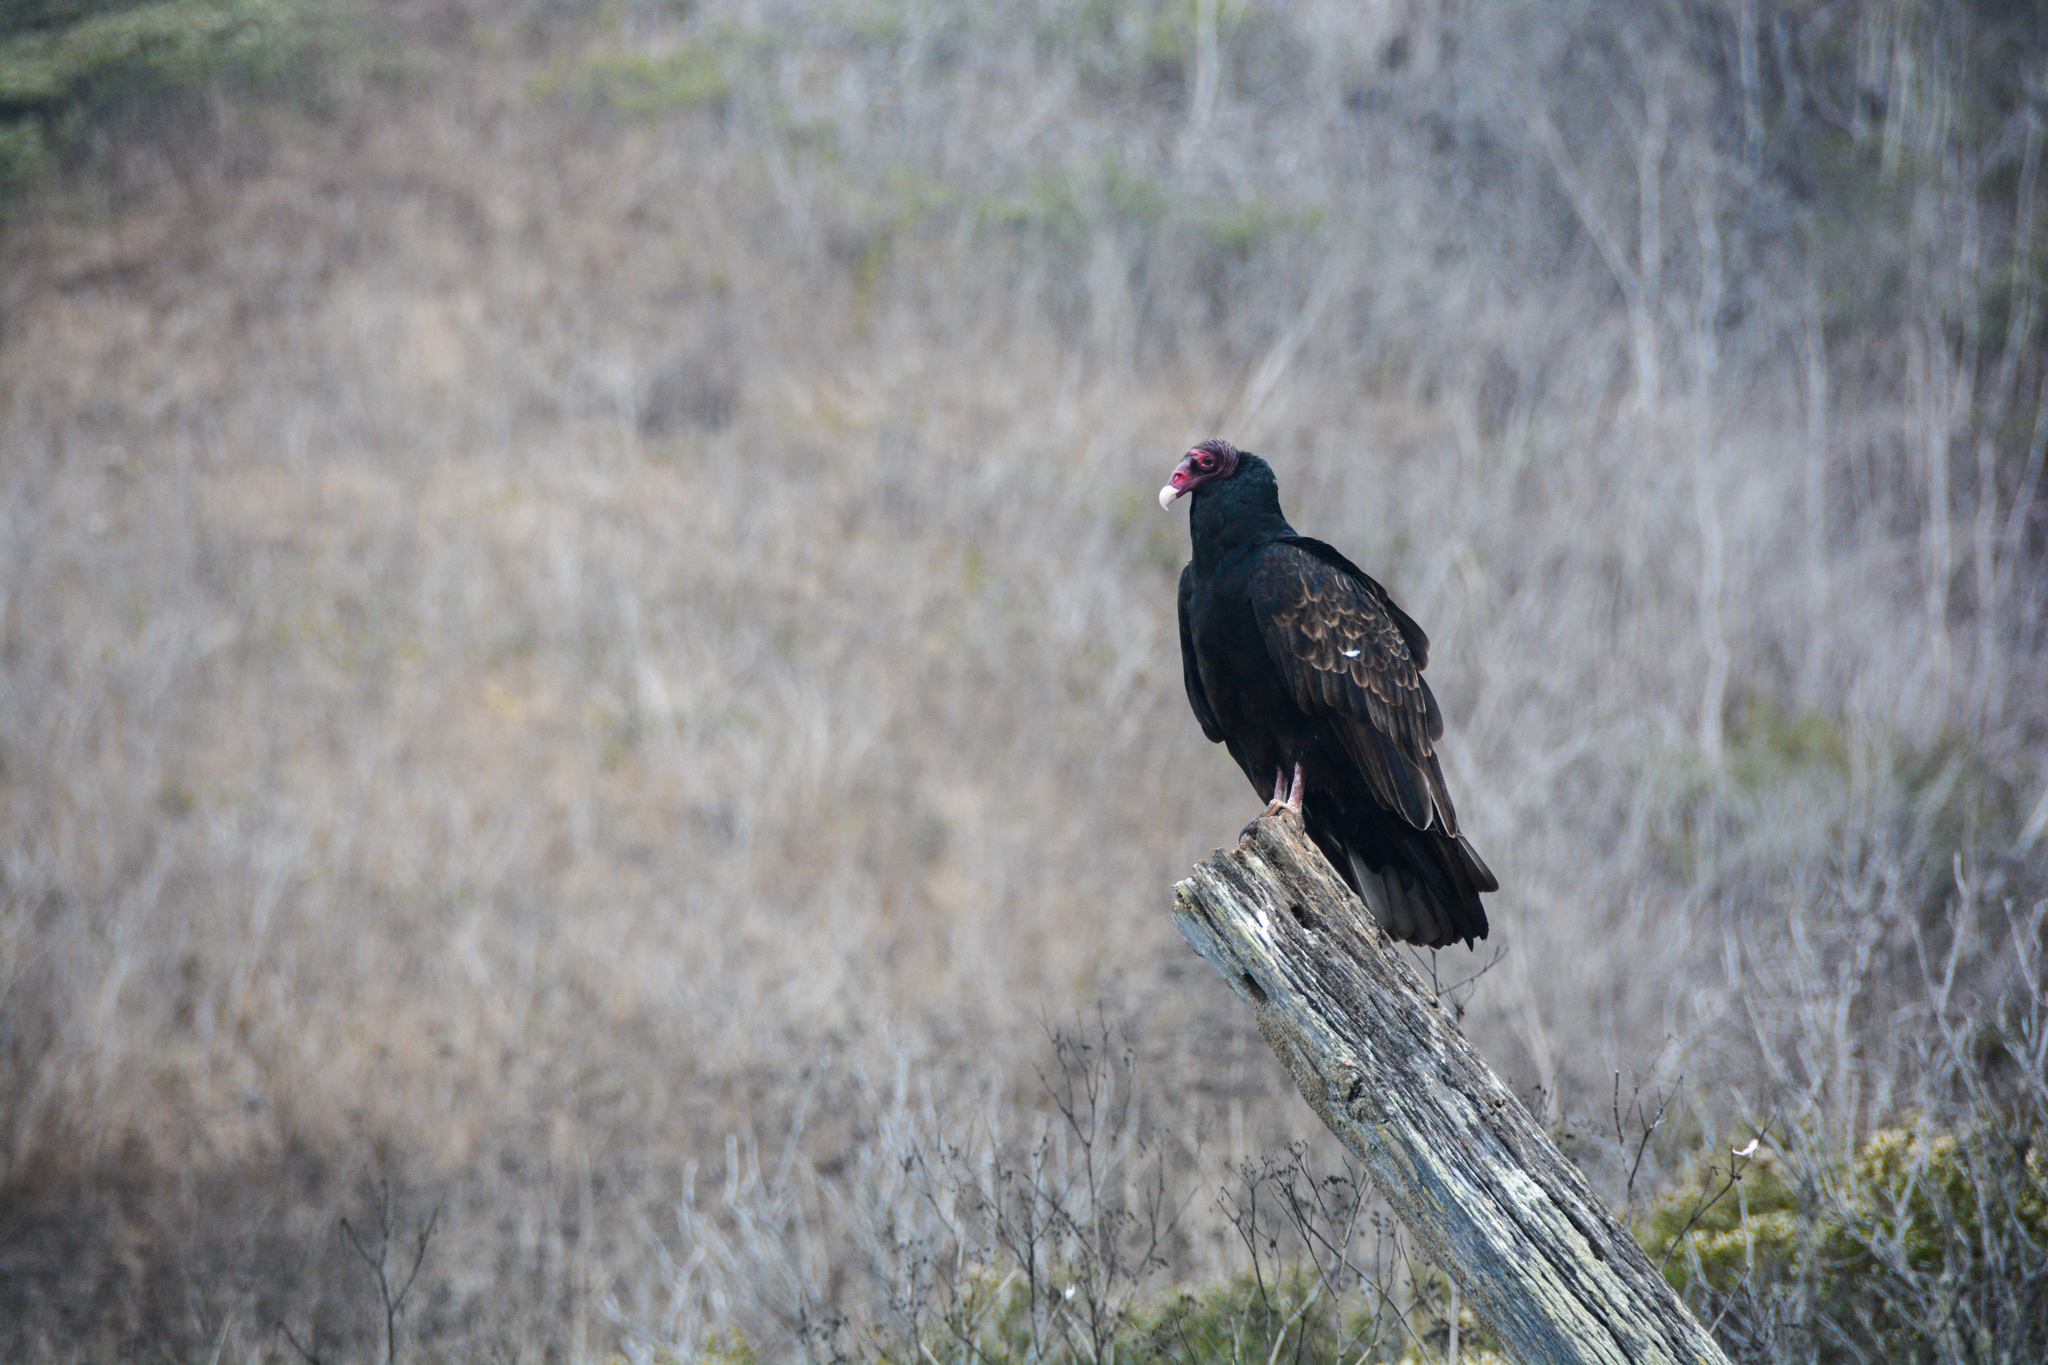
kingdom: Animalia
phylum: Chordata
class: Aves
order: Accipitriformes
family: Cathartidae
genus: Cathartes
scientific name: Cathartes aura
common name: Turkey vulture
